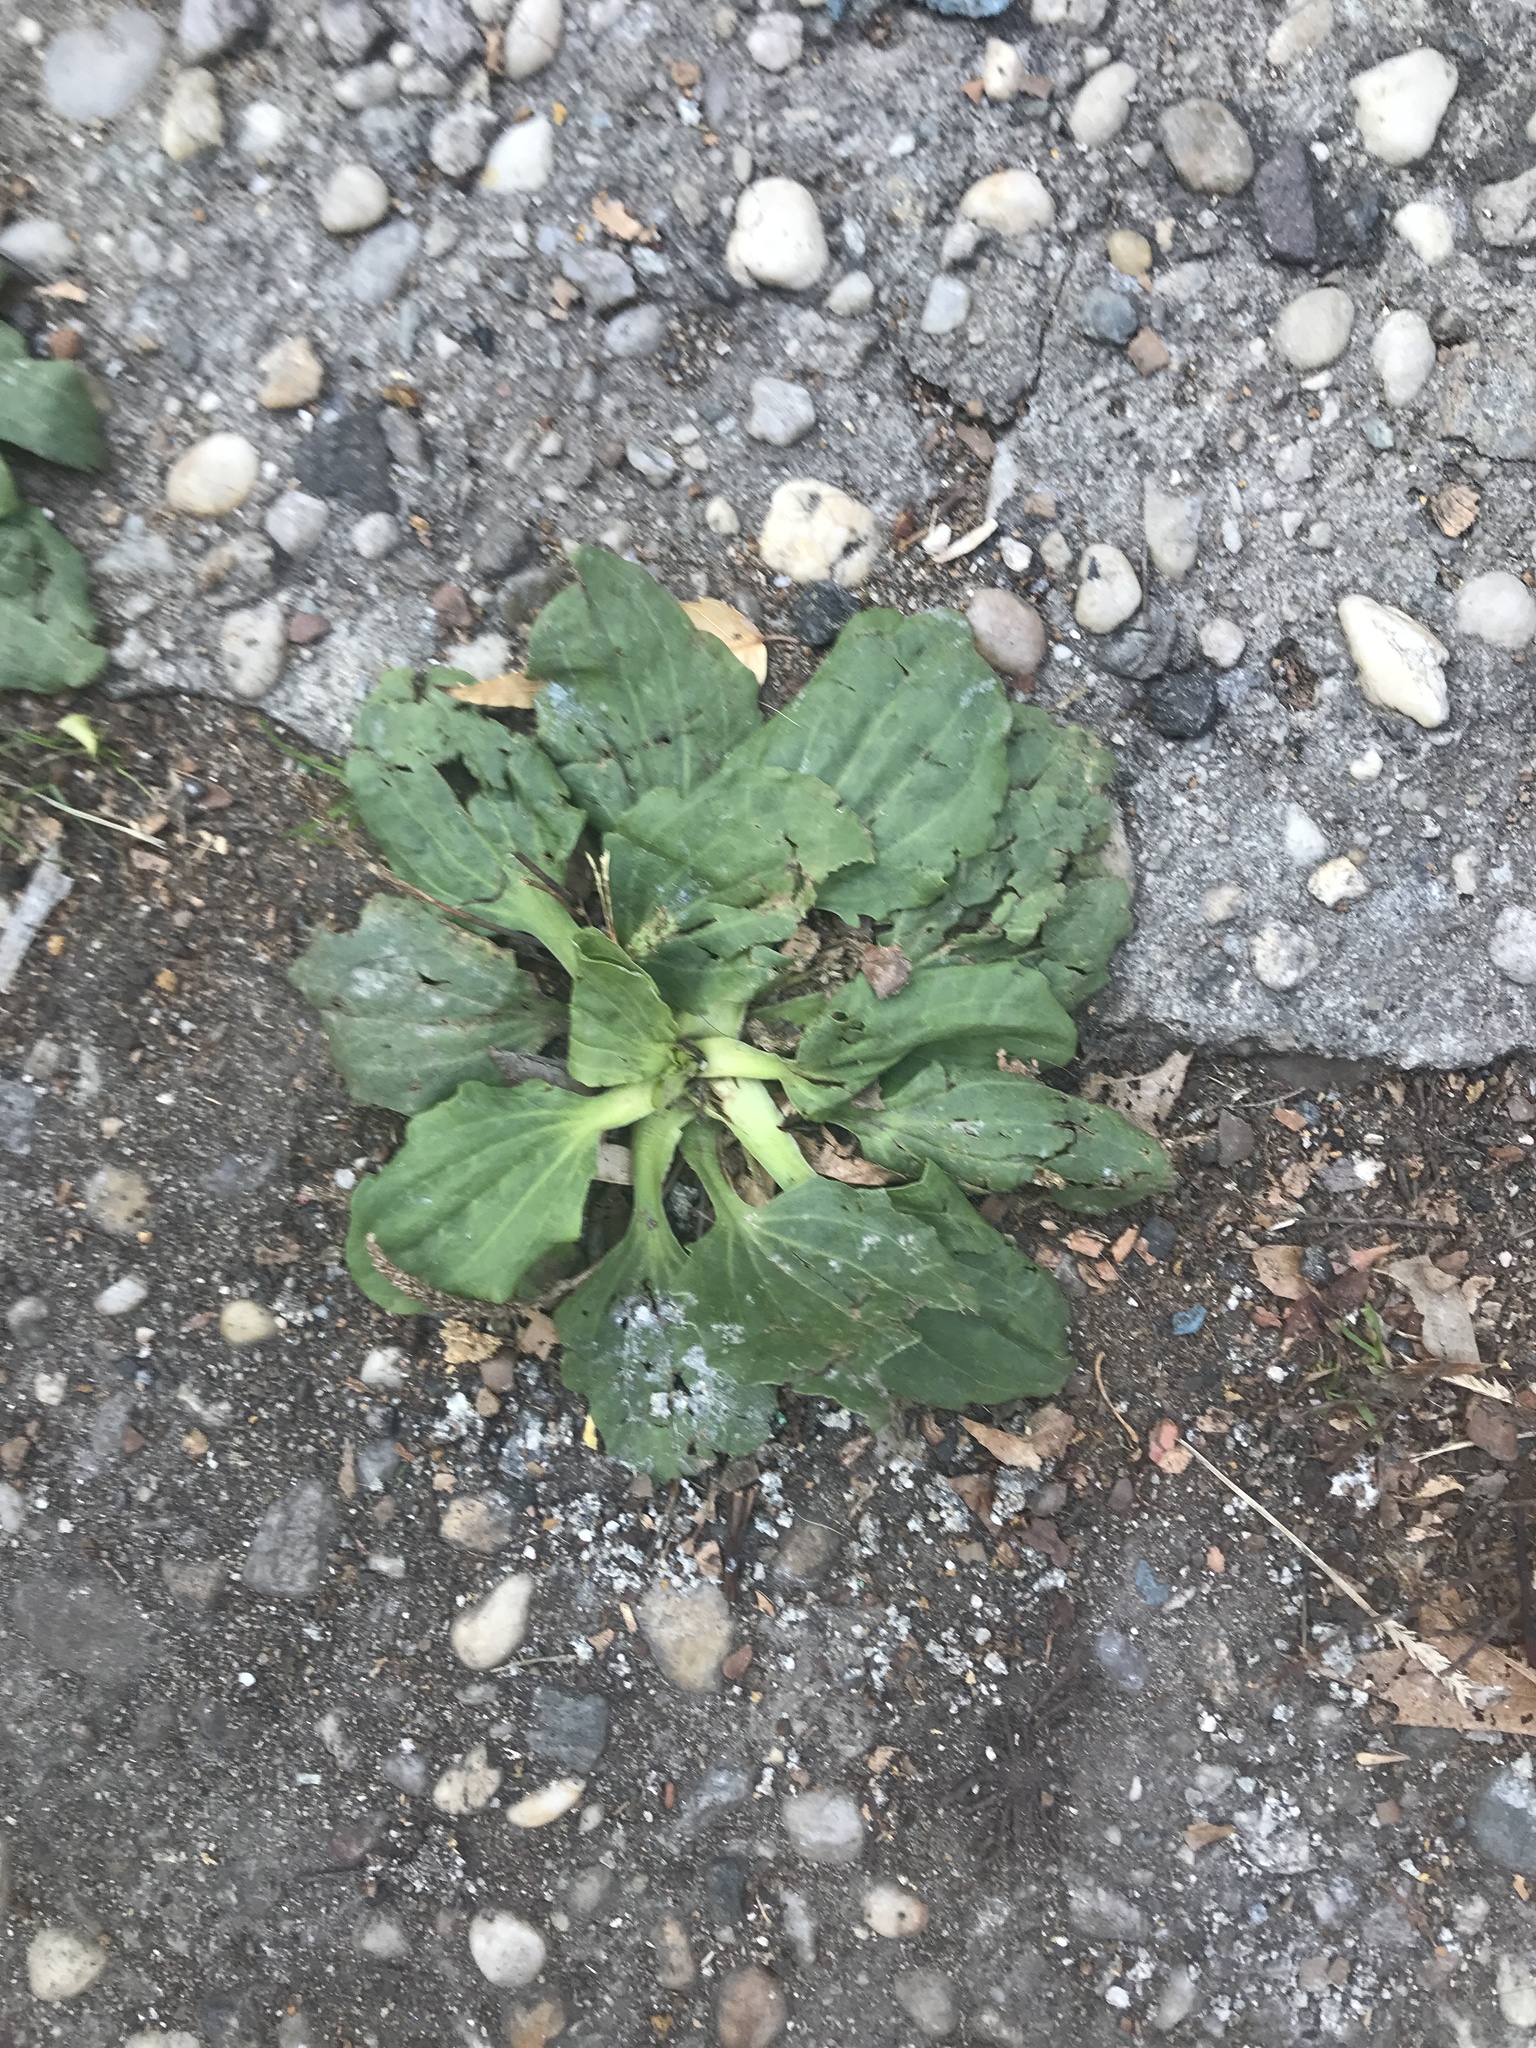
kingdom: Plantae
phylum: Tracheophyta
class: Magnoliopsida
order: Lamiales
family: Plantaginaceae
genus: Plantago
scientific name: Plantago major
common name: Common plantain
